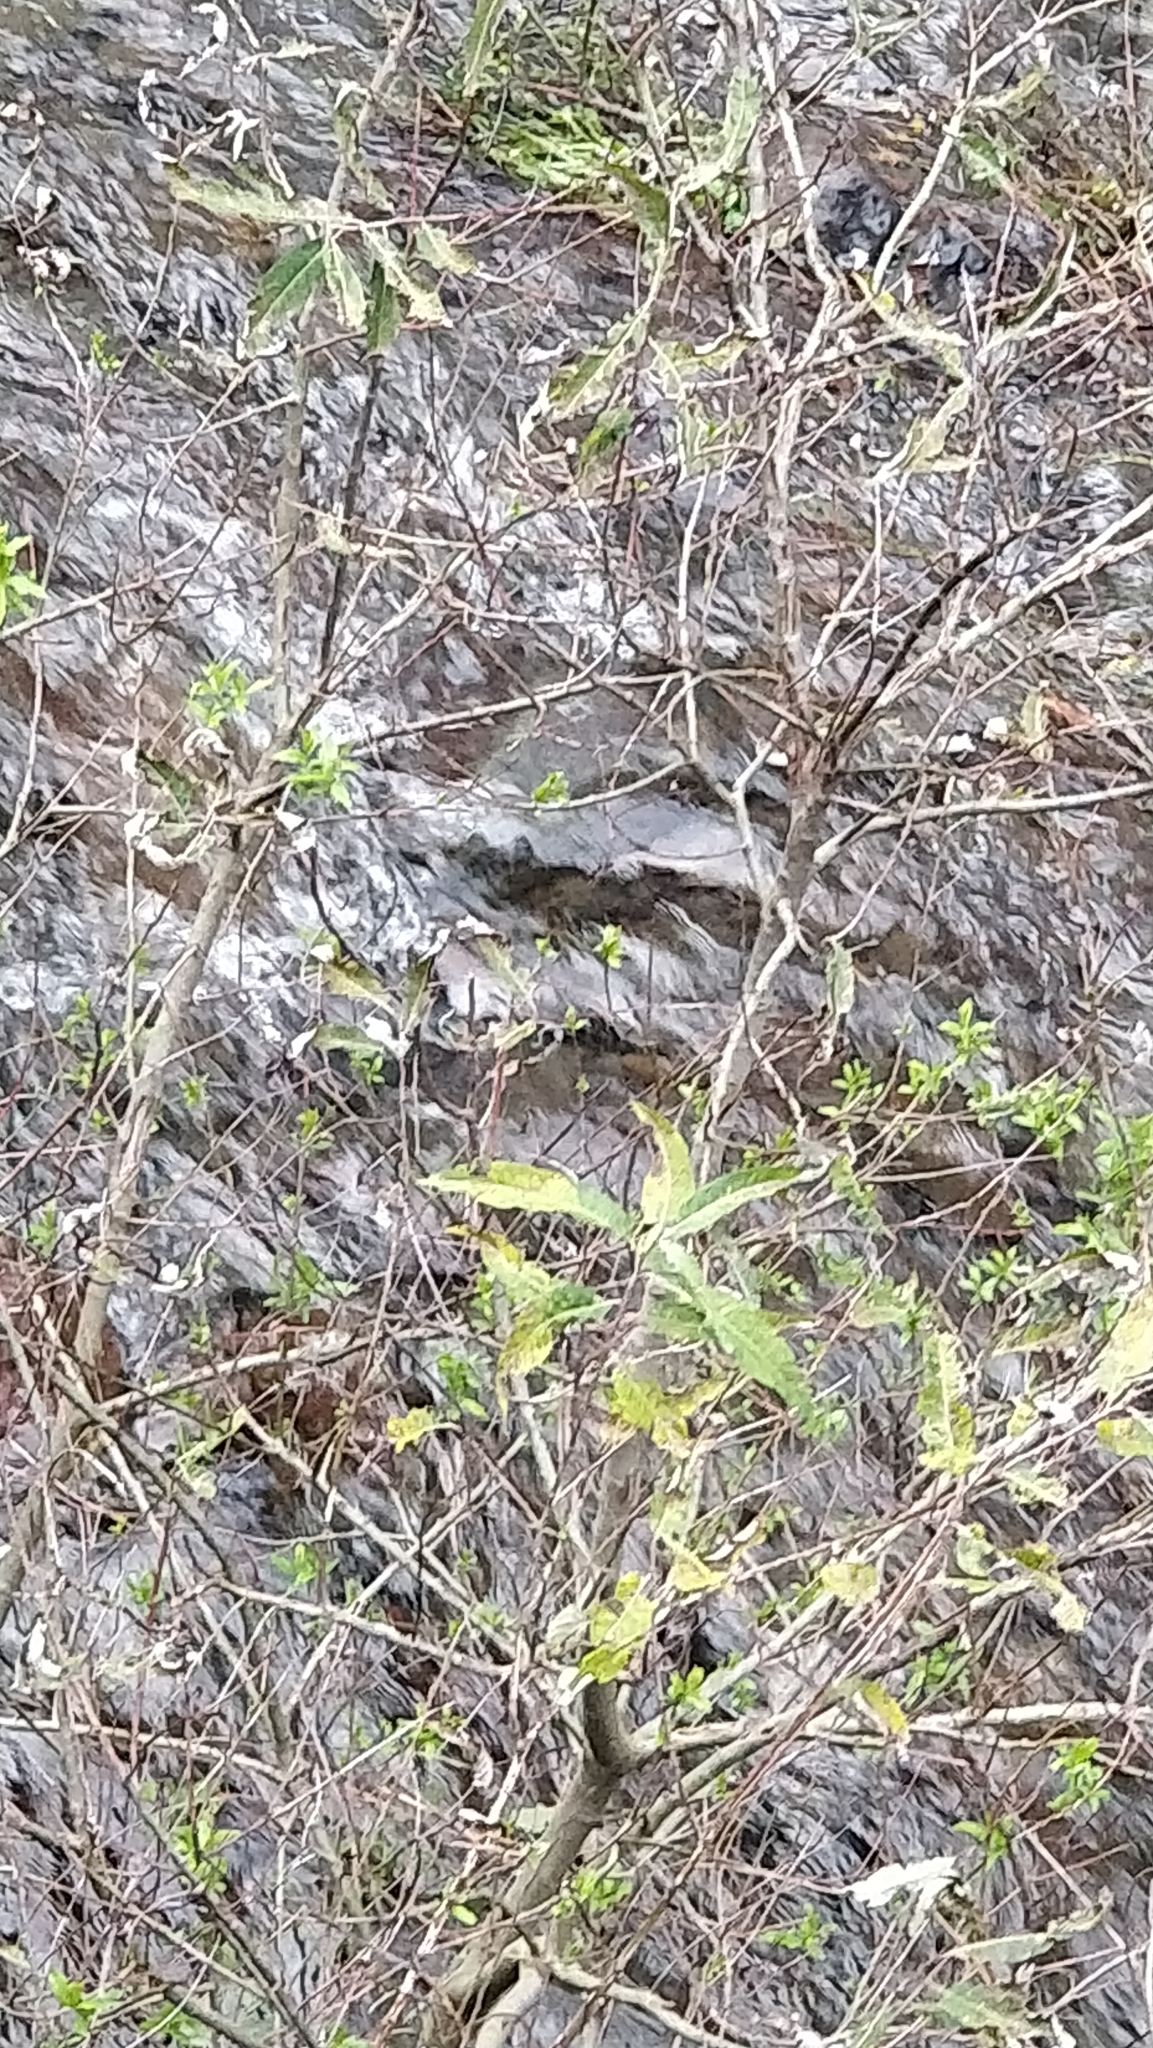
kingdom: Plantae
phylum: Tracheophyta
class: Magnoliopsida
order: Malpighiales
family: Salicaceae
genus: Salix
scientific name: Salix canariensis
